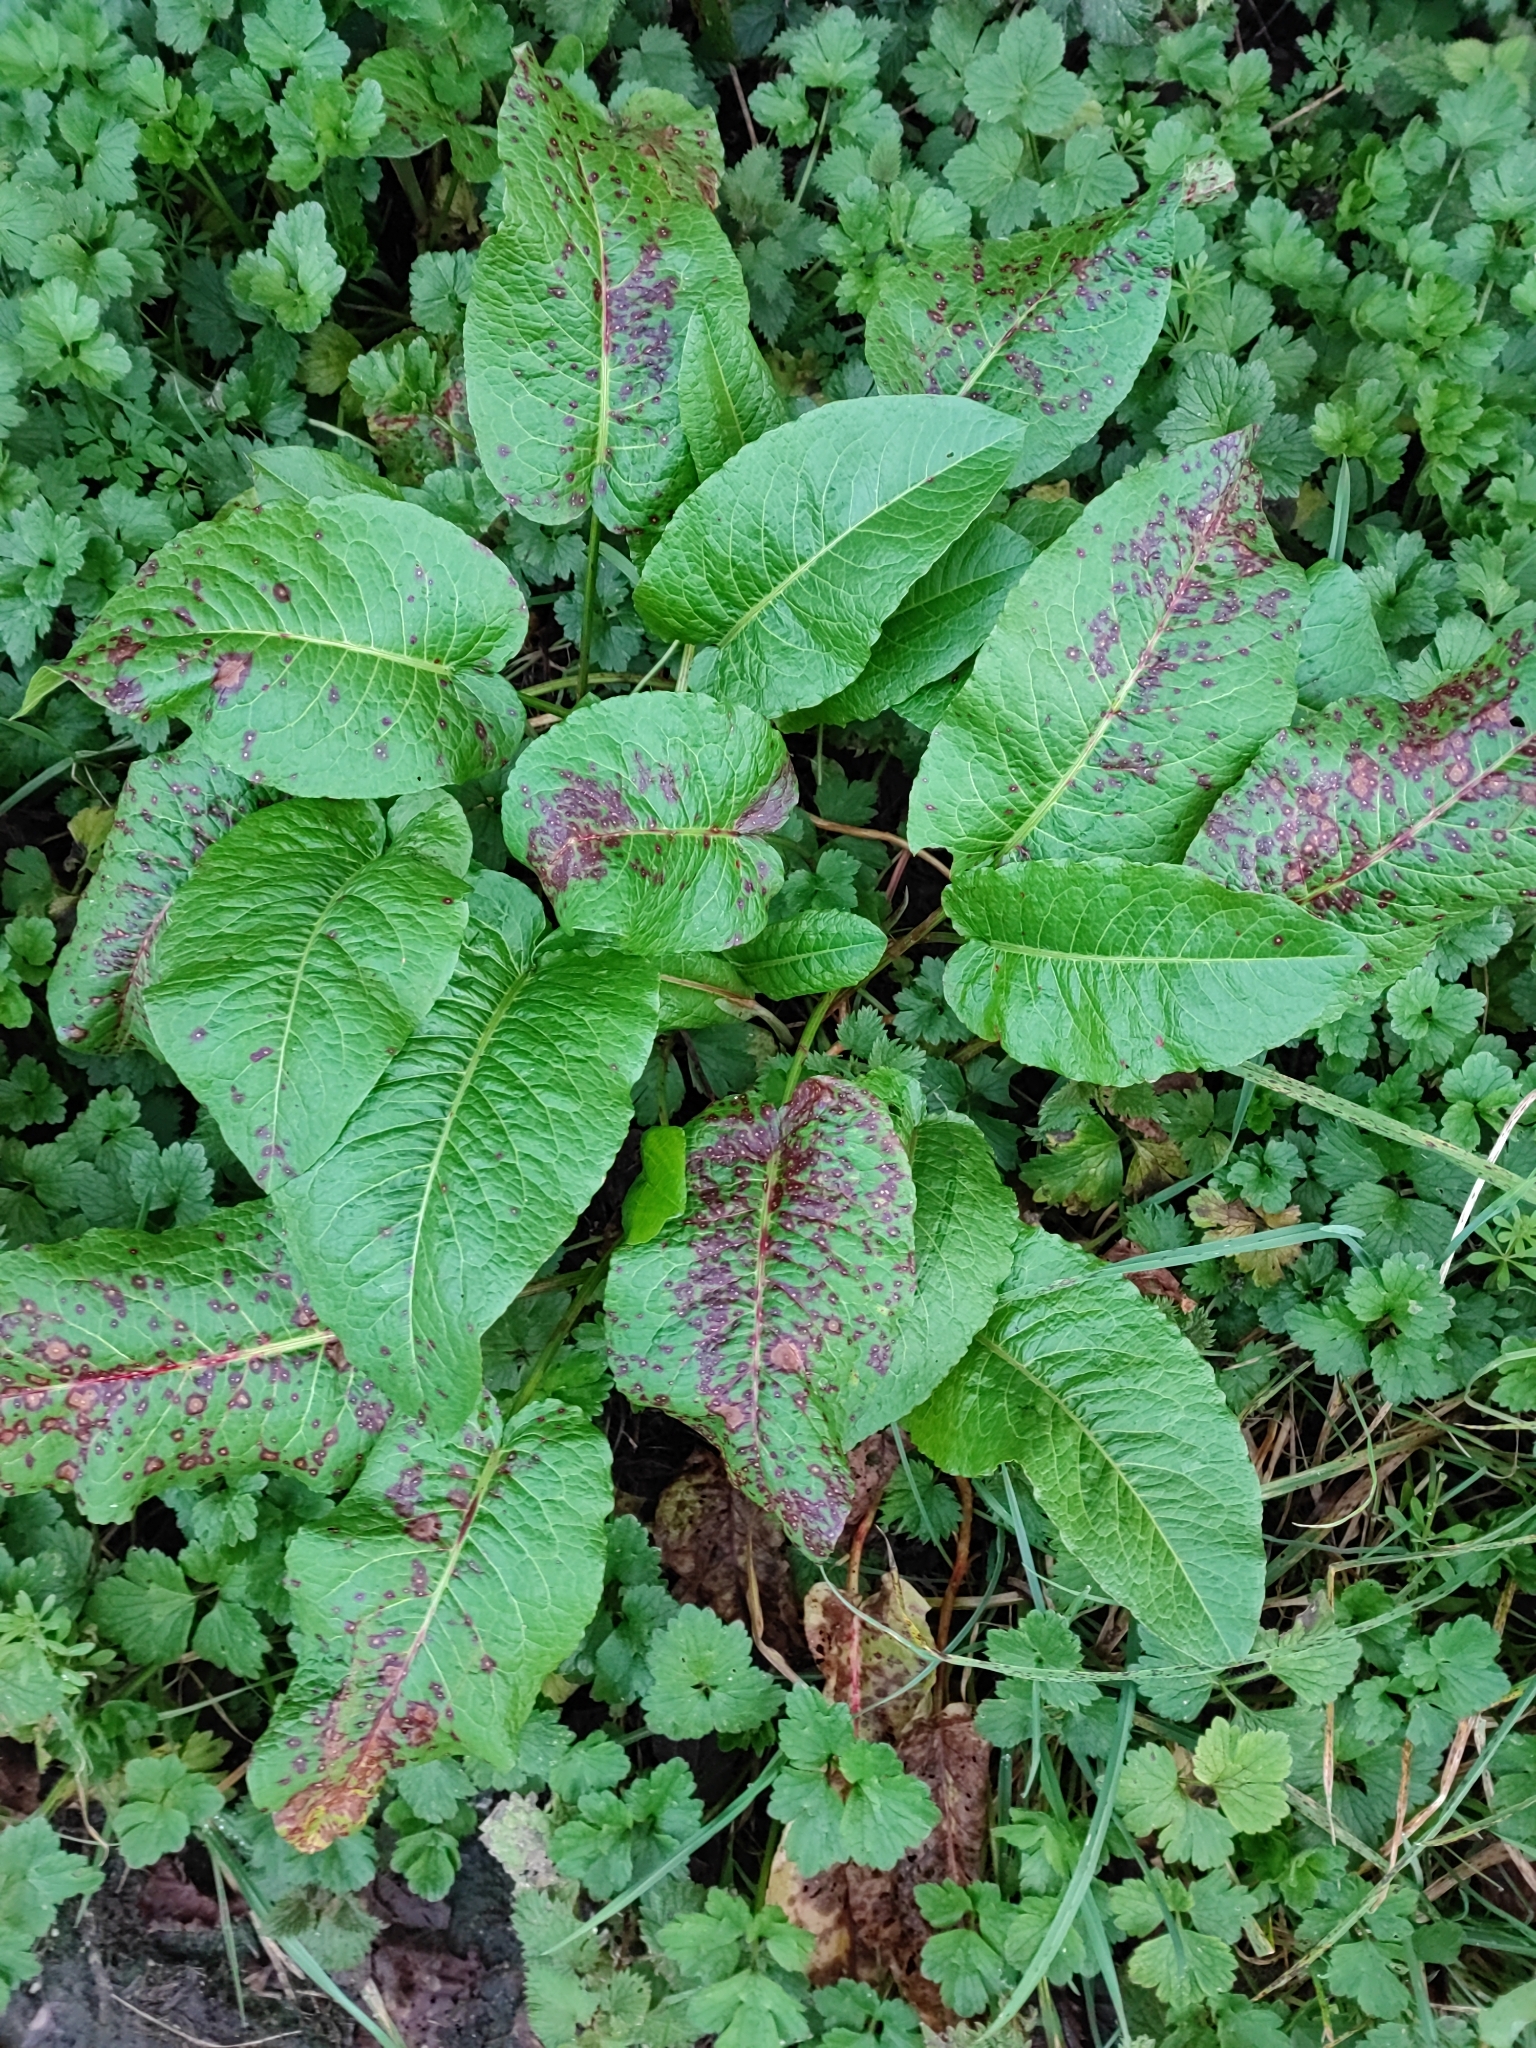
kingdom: Plantae
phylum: Tracheophyta
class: Magnoliopsida
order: Caryophyllales
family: Polygonaceae
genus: Rumex
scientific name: Rumex obtusifolius
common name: Bitter dock
